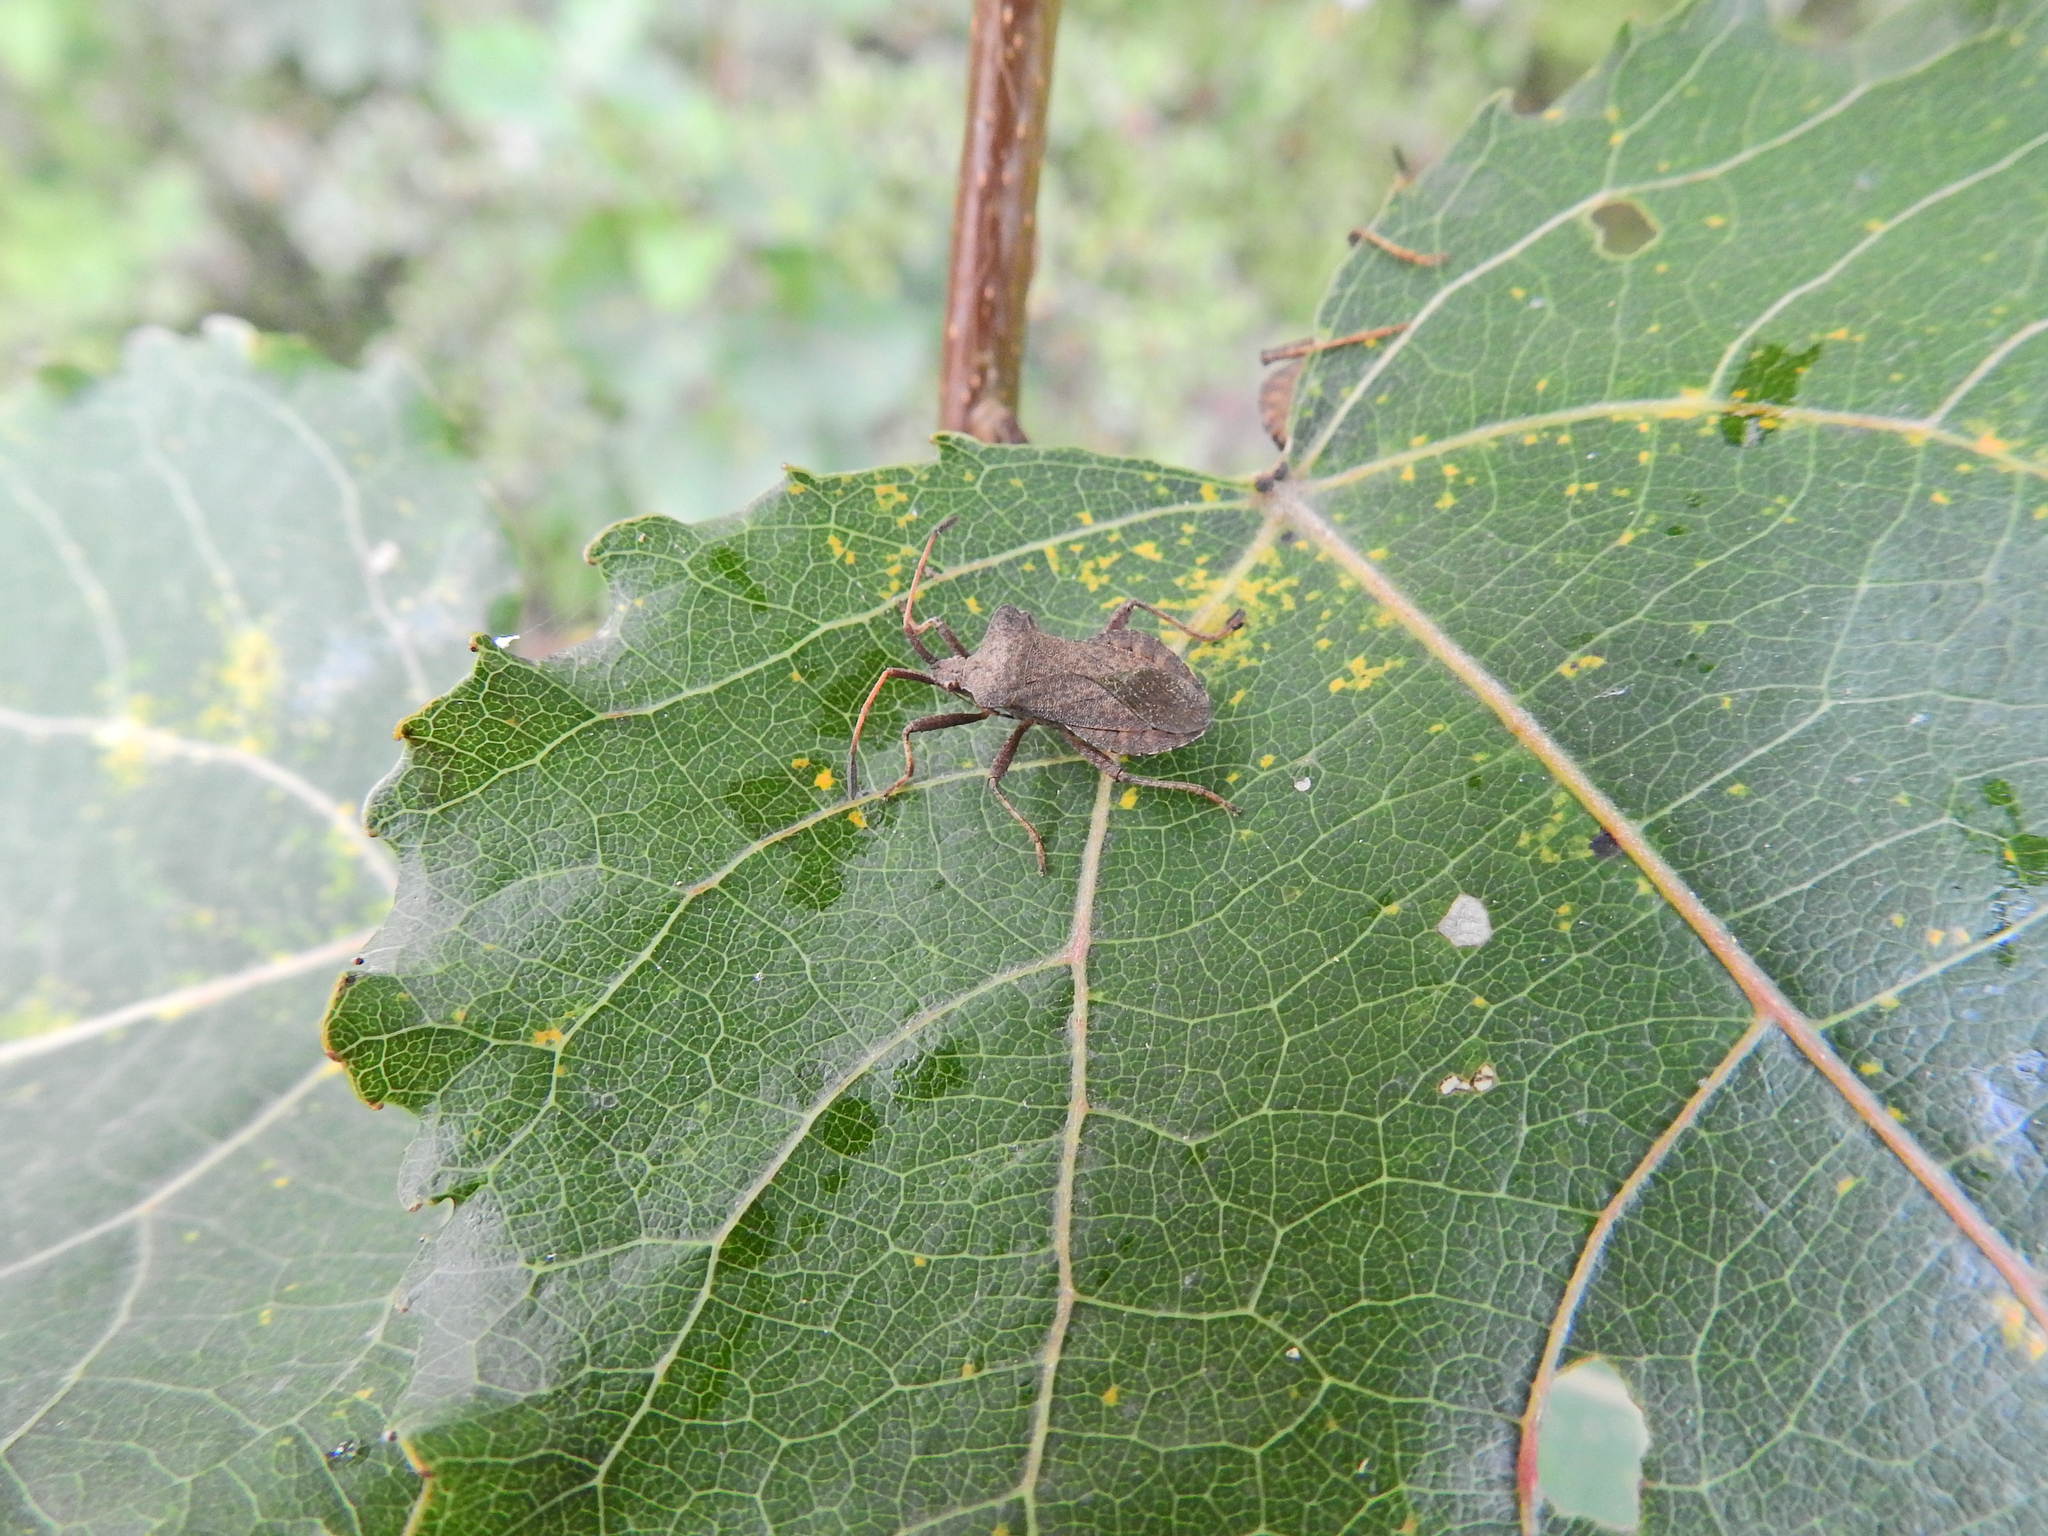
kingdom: Animalia
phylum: Arthropoda
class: Insecta
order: Hemiptera
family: Coreidae
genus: Coreus
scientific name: Coreus marginatus
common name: Dock bug
